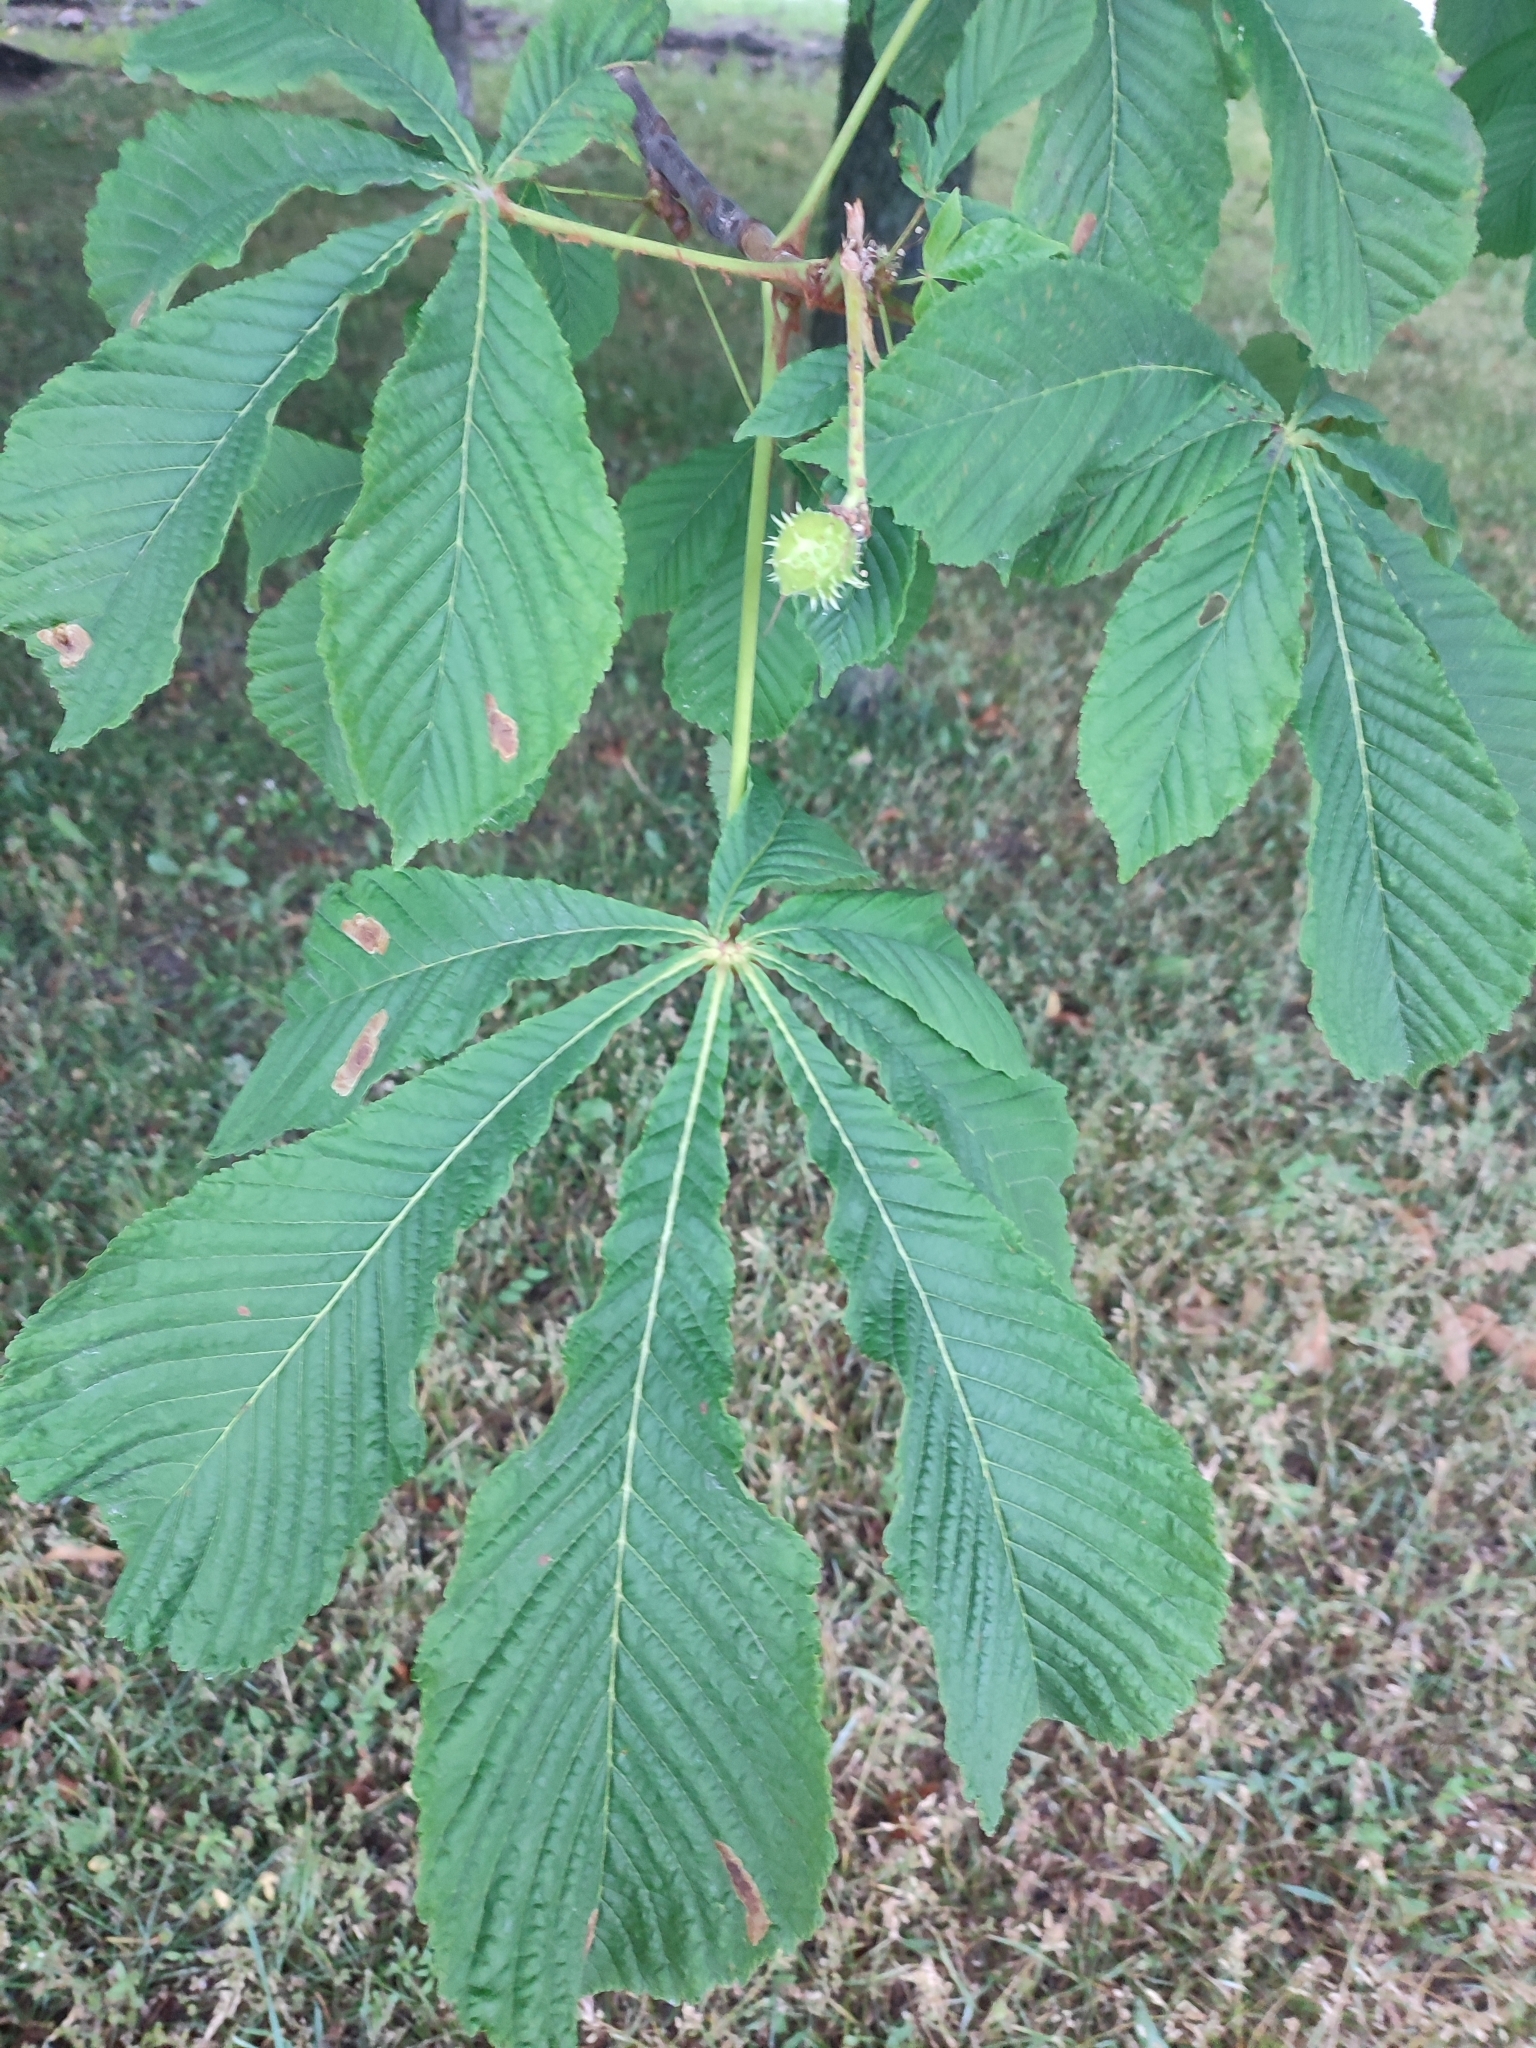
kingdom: Plantae
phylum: Tracheophyta
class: Magnoliopsida
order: Sapindales
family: Sapindaceae
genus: Aesculus
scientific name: Aesculus hippocastanum
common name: Horse-chestnut
